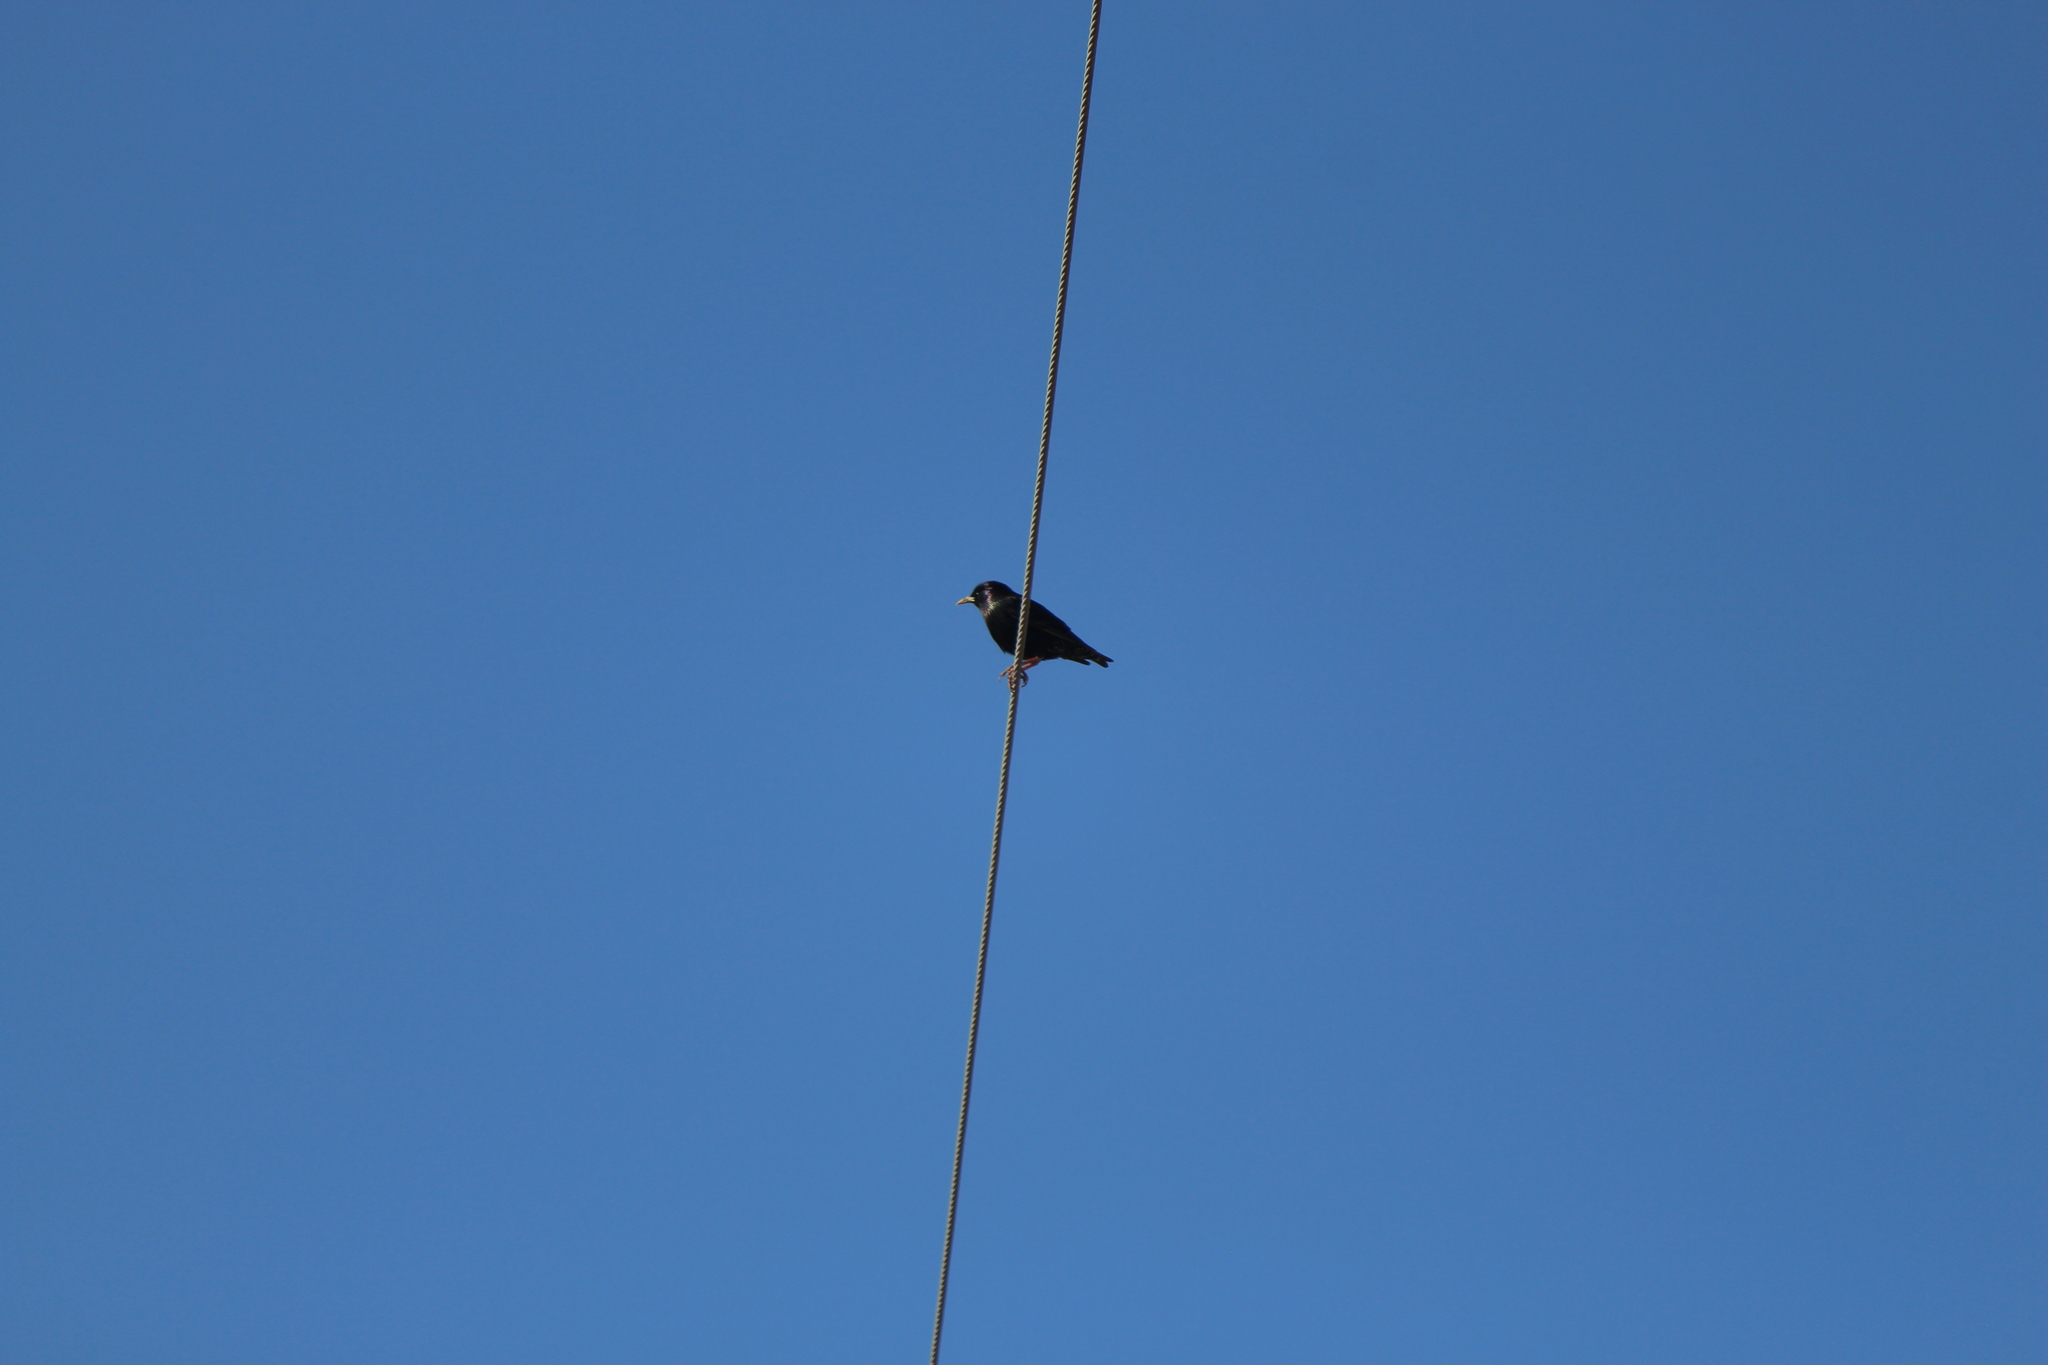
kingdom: Animalia
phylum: Chordata
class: Aves
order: Passeriformes
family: Sturnidae
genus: Sturnus
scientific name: Sturnus vulgaris
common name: Common starling
